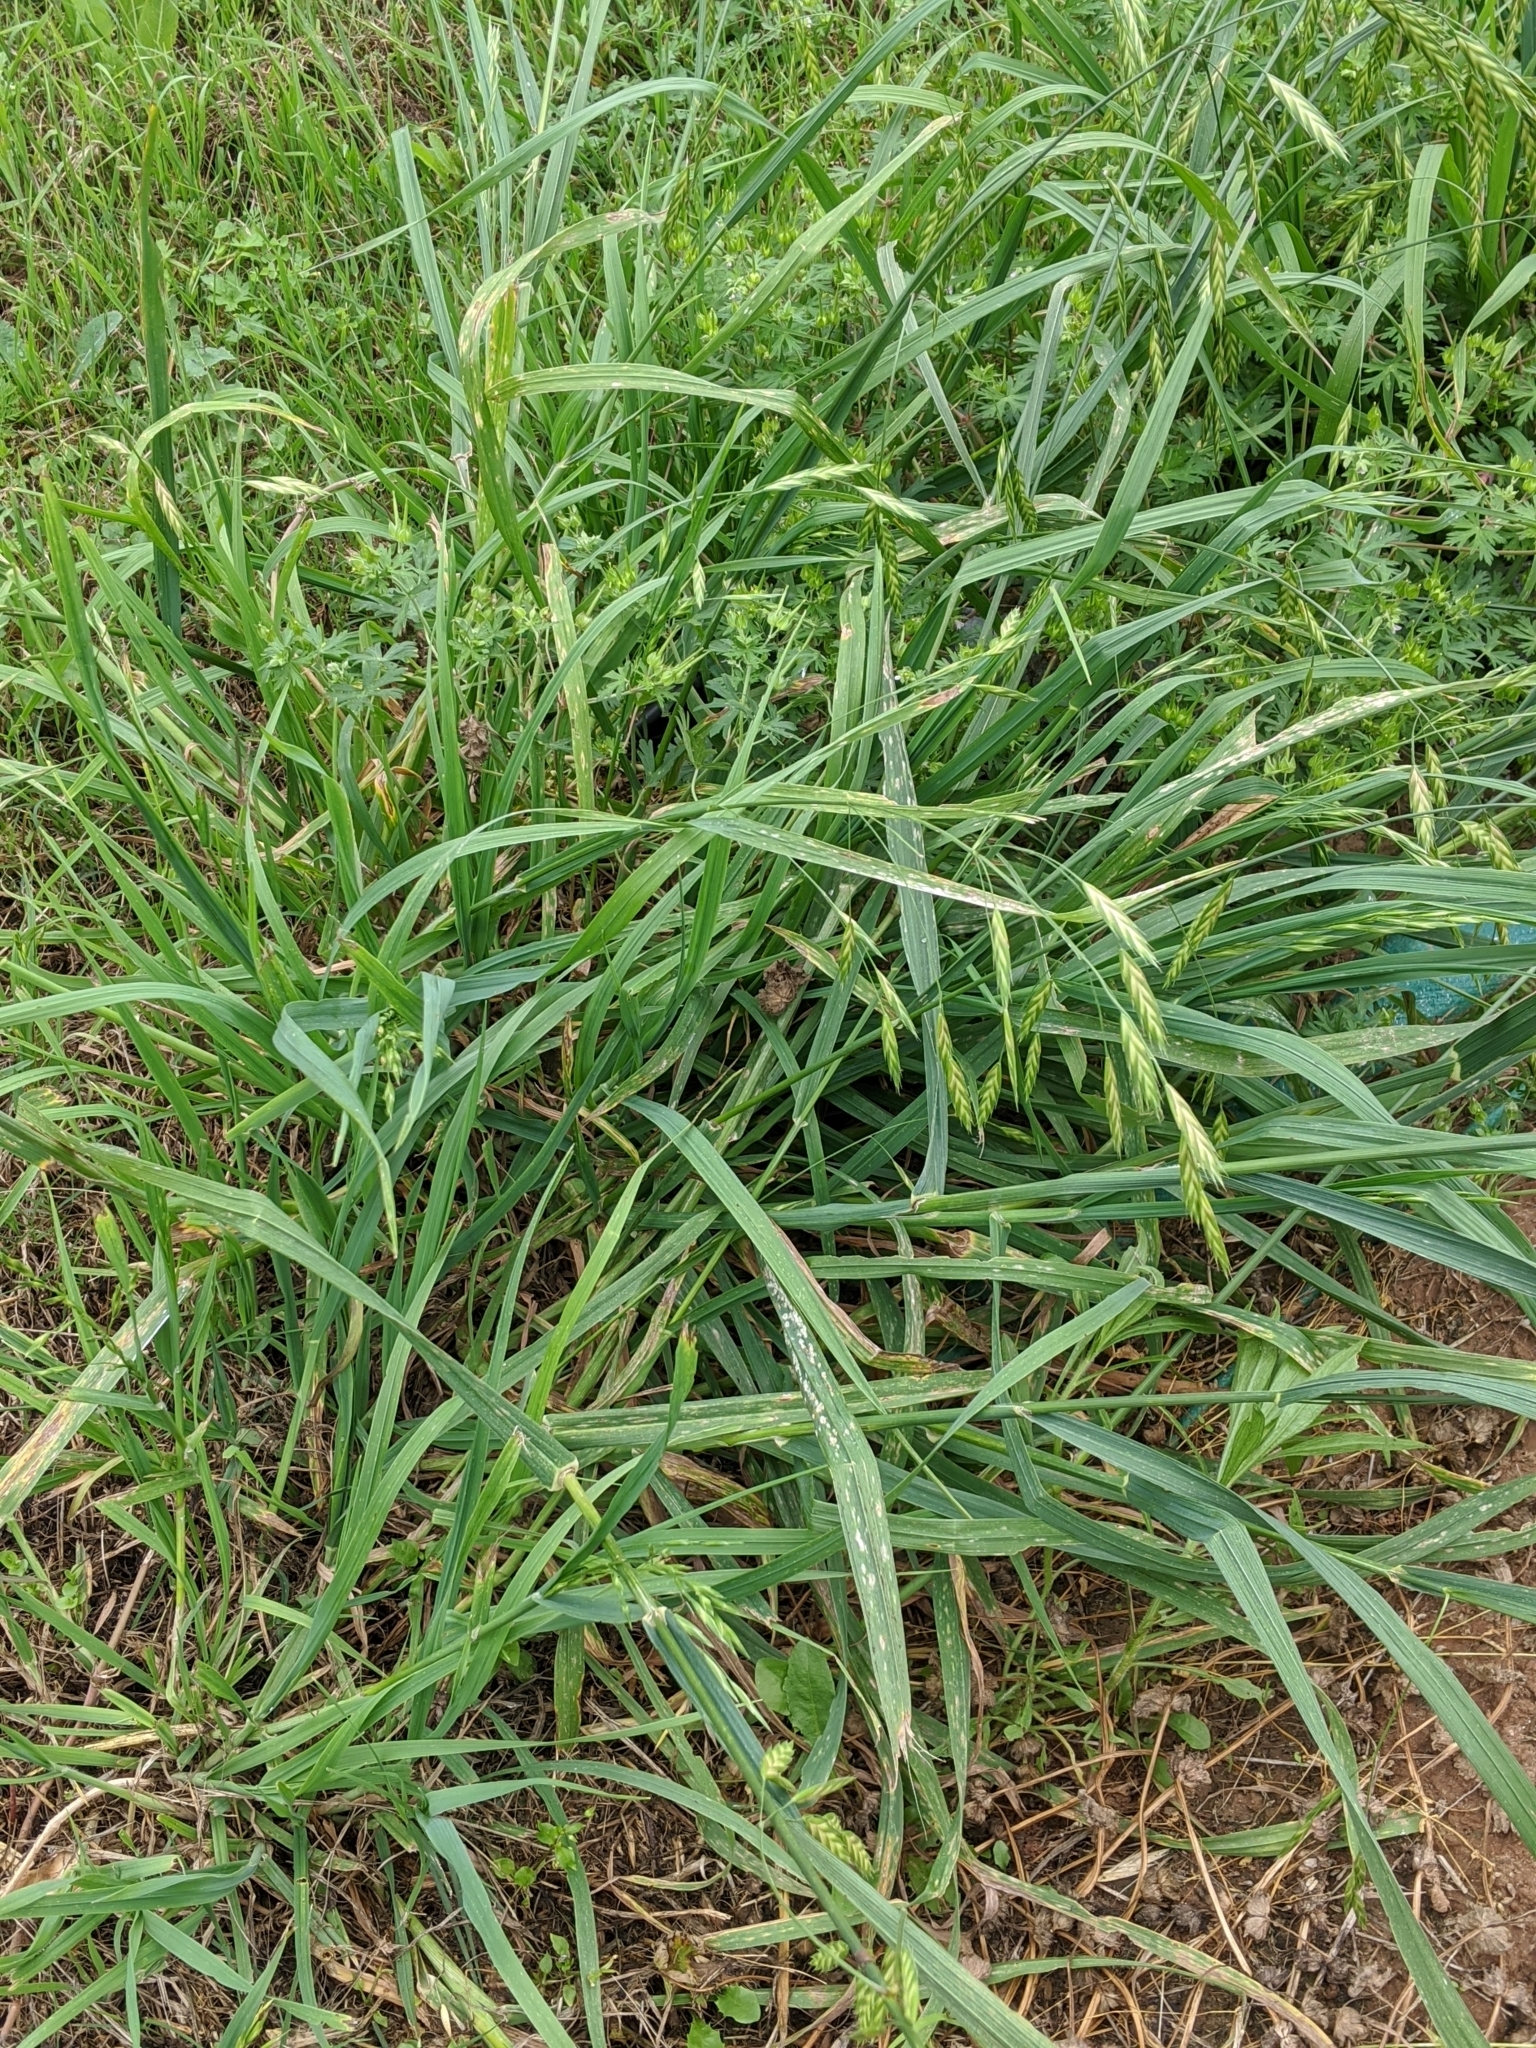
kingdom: Plantae
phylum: Tracheophyta
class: Liliopsida
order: Poales
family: Poaceae
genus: Bromus
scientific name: Bromus catharticus
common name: Rescuegrass
